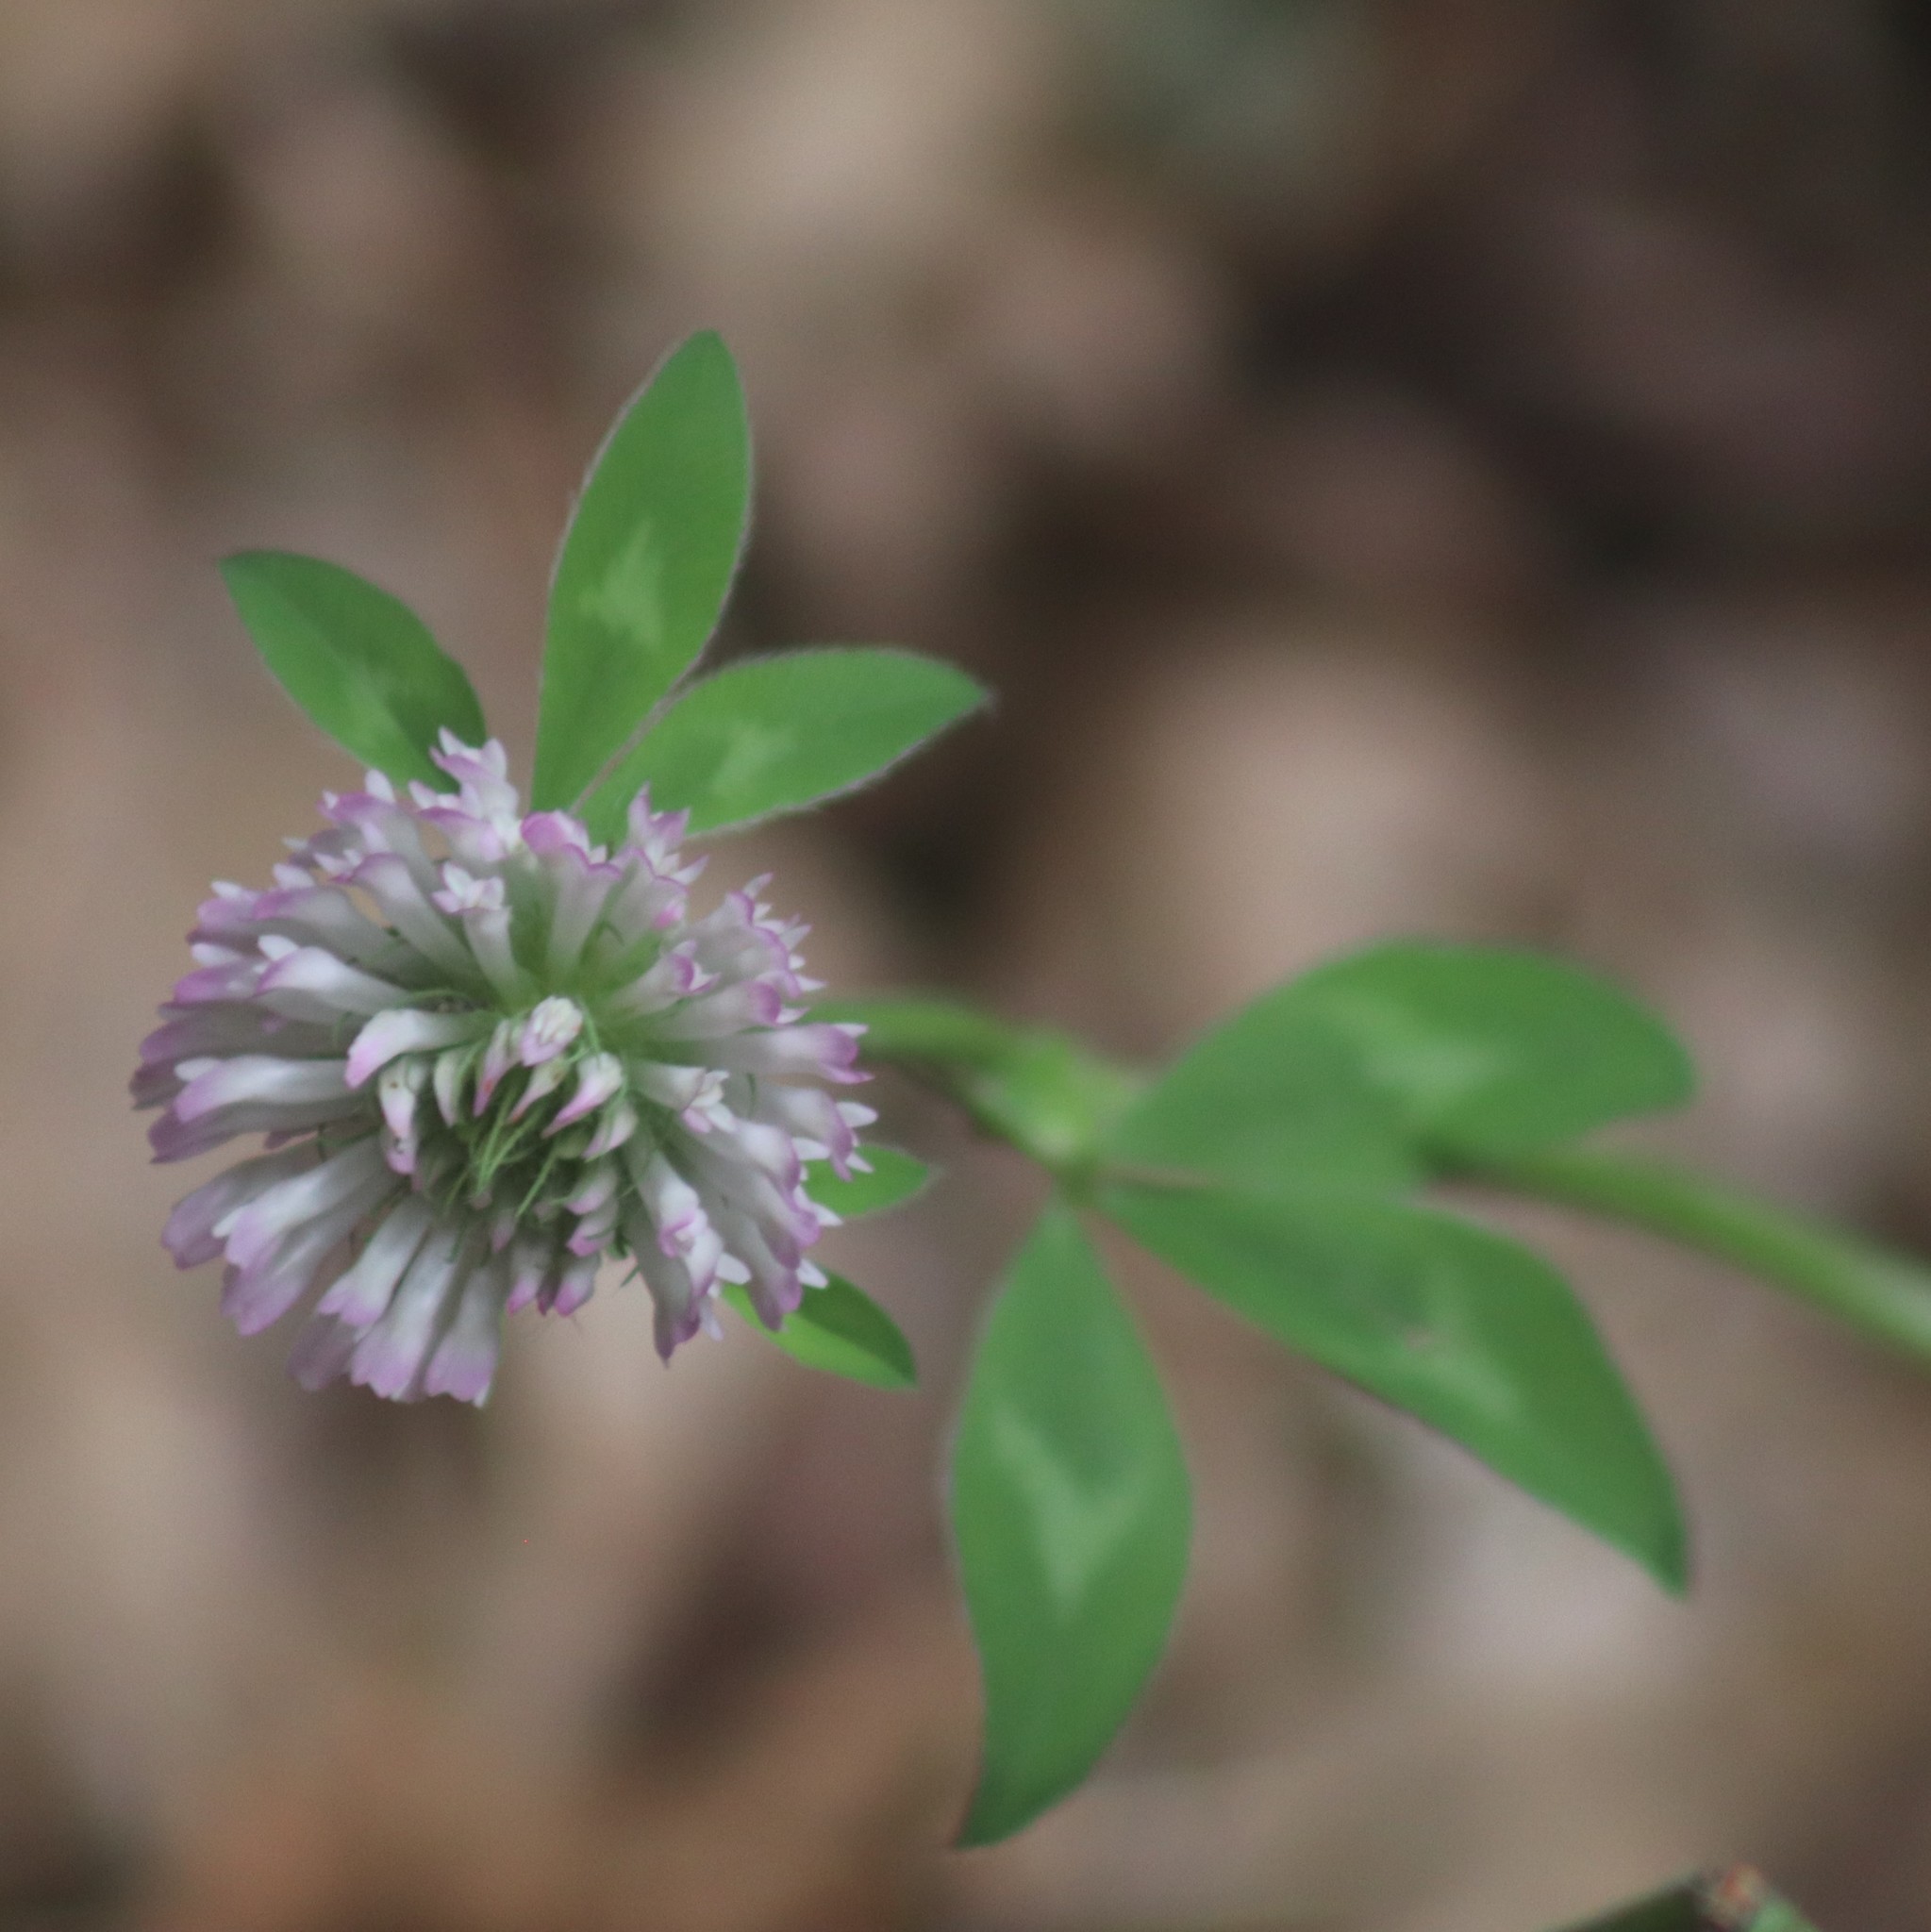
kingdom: Plantae
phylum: Tracheophyta
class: Magnoliopsida
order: Fabales
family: Fabaceae
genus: Trifolium
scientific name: Trifolium pratense
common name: Red clover
